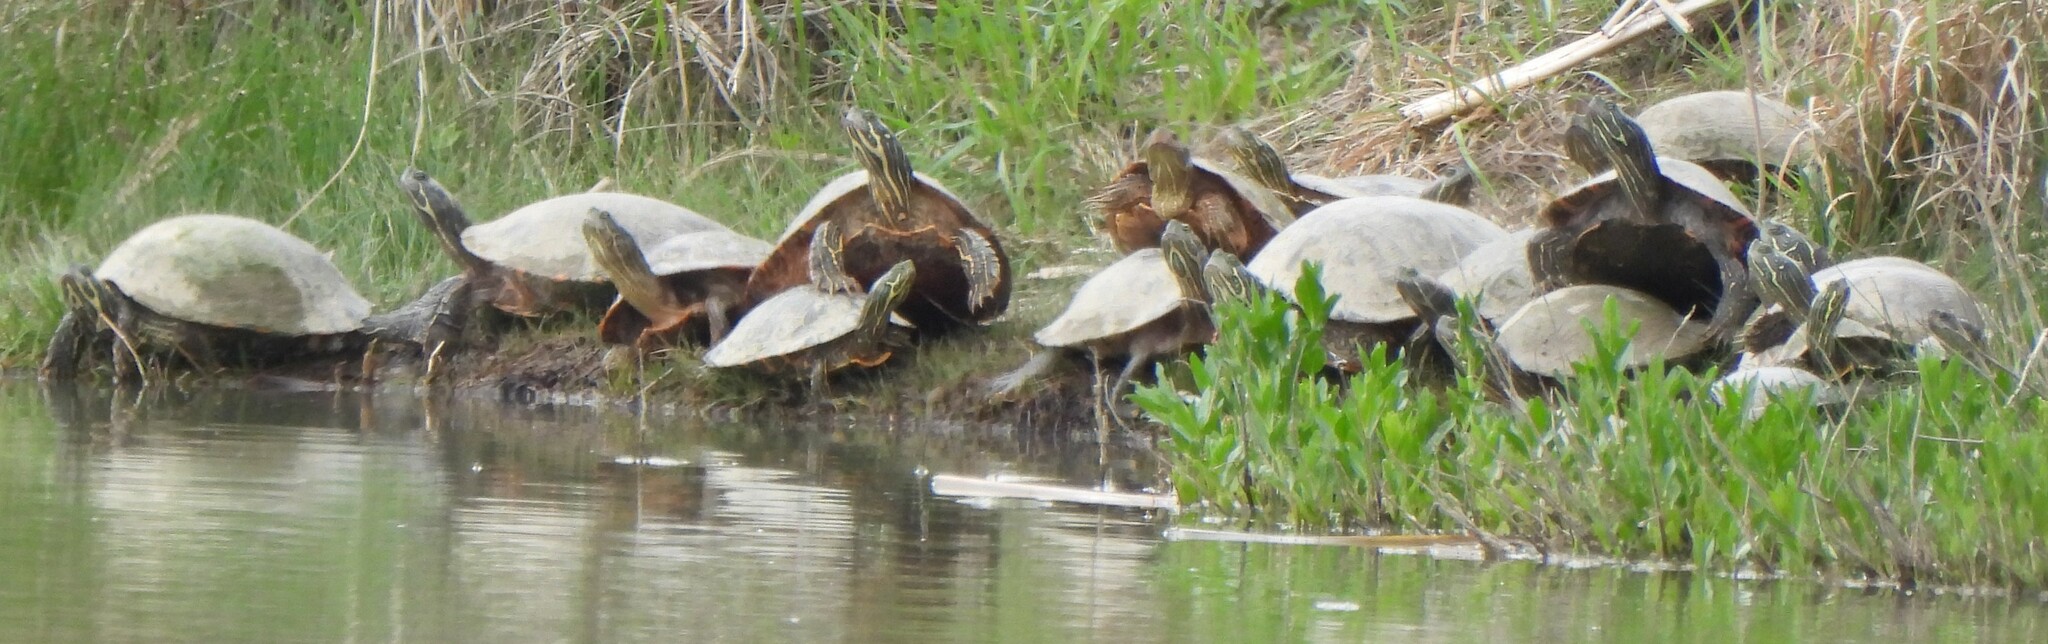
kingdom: Animalia
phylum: Chordata
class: Testudines
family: Emydidae
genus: Pseudemys
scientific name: Pseudemys concinna
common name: Eastern river cooter
